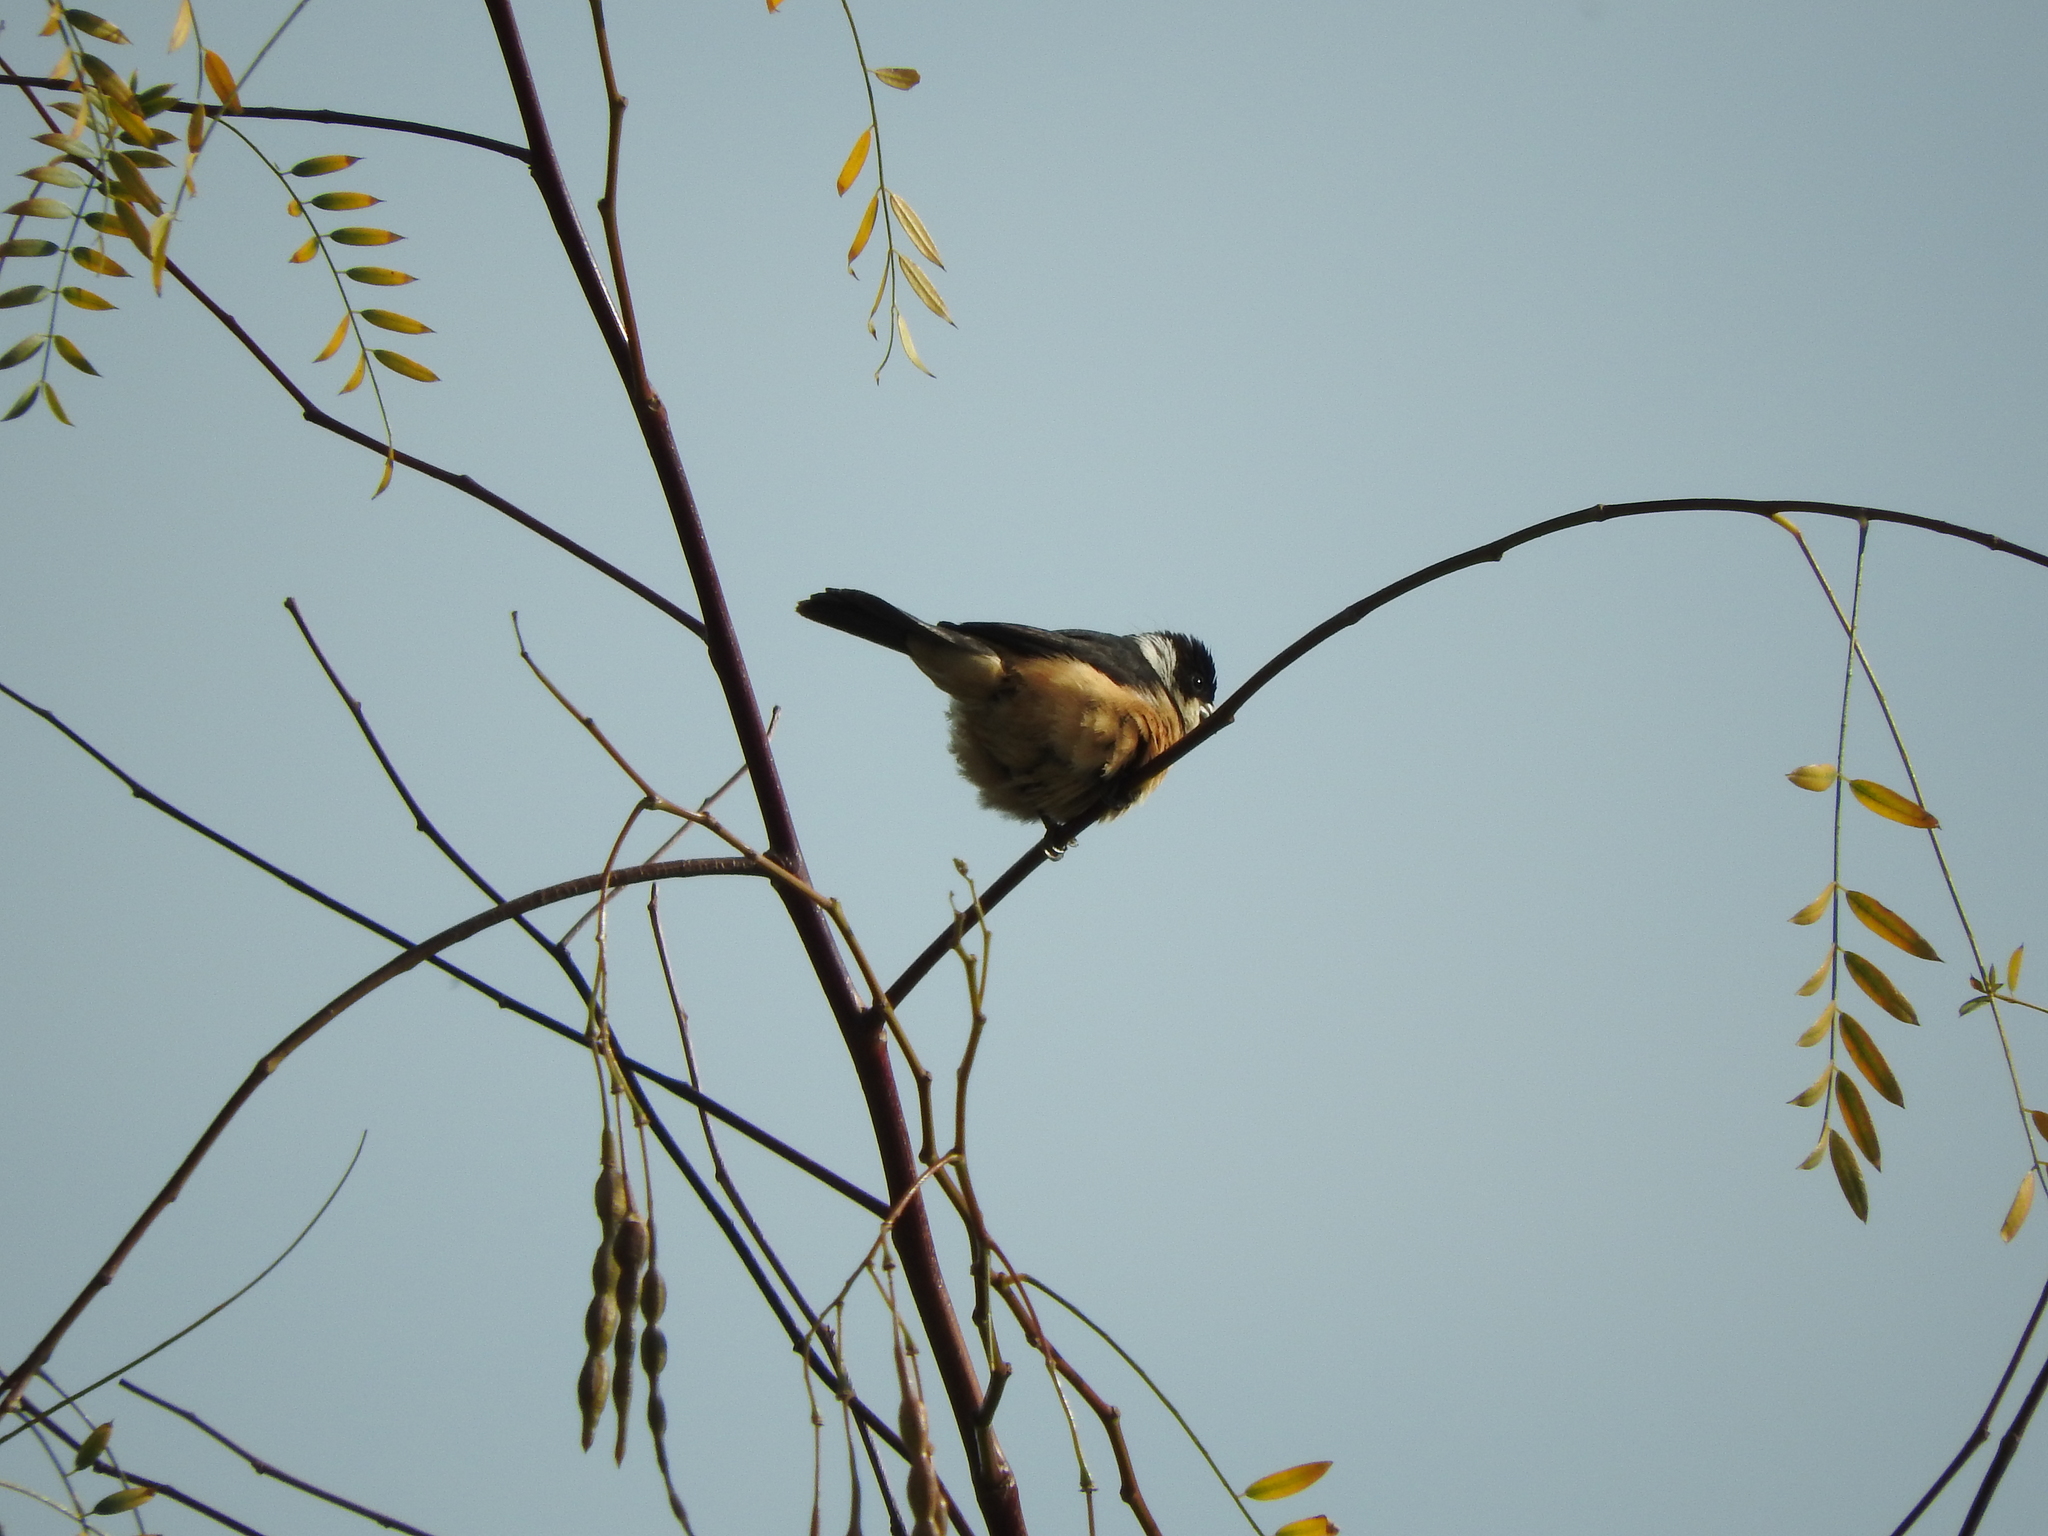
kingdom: Animalia
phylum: Chordata
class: Aves
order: Passeriformes
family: Thraupidae
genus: Sporophila
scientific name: Sporophila torqueola
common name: White-collared seedeater
